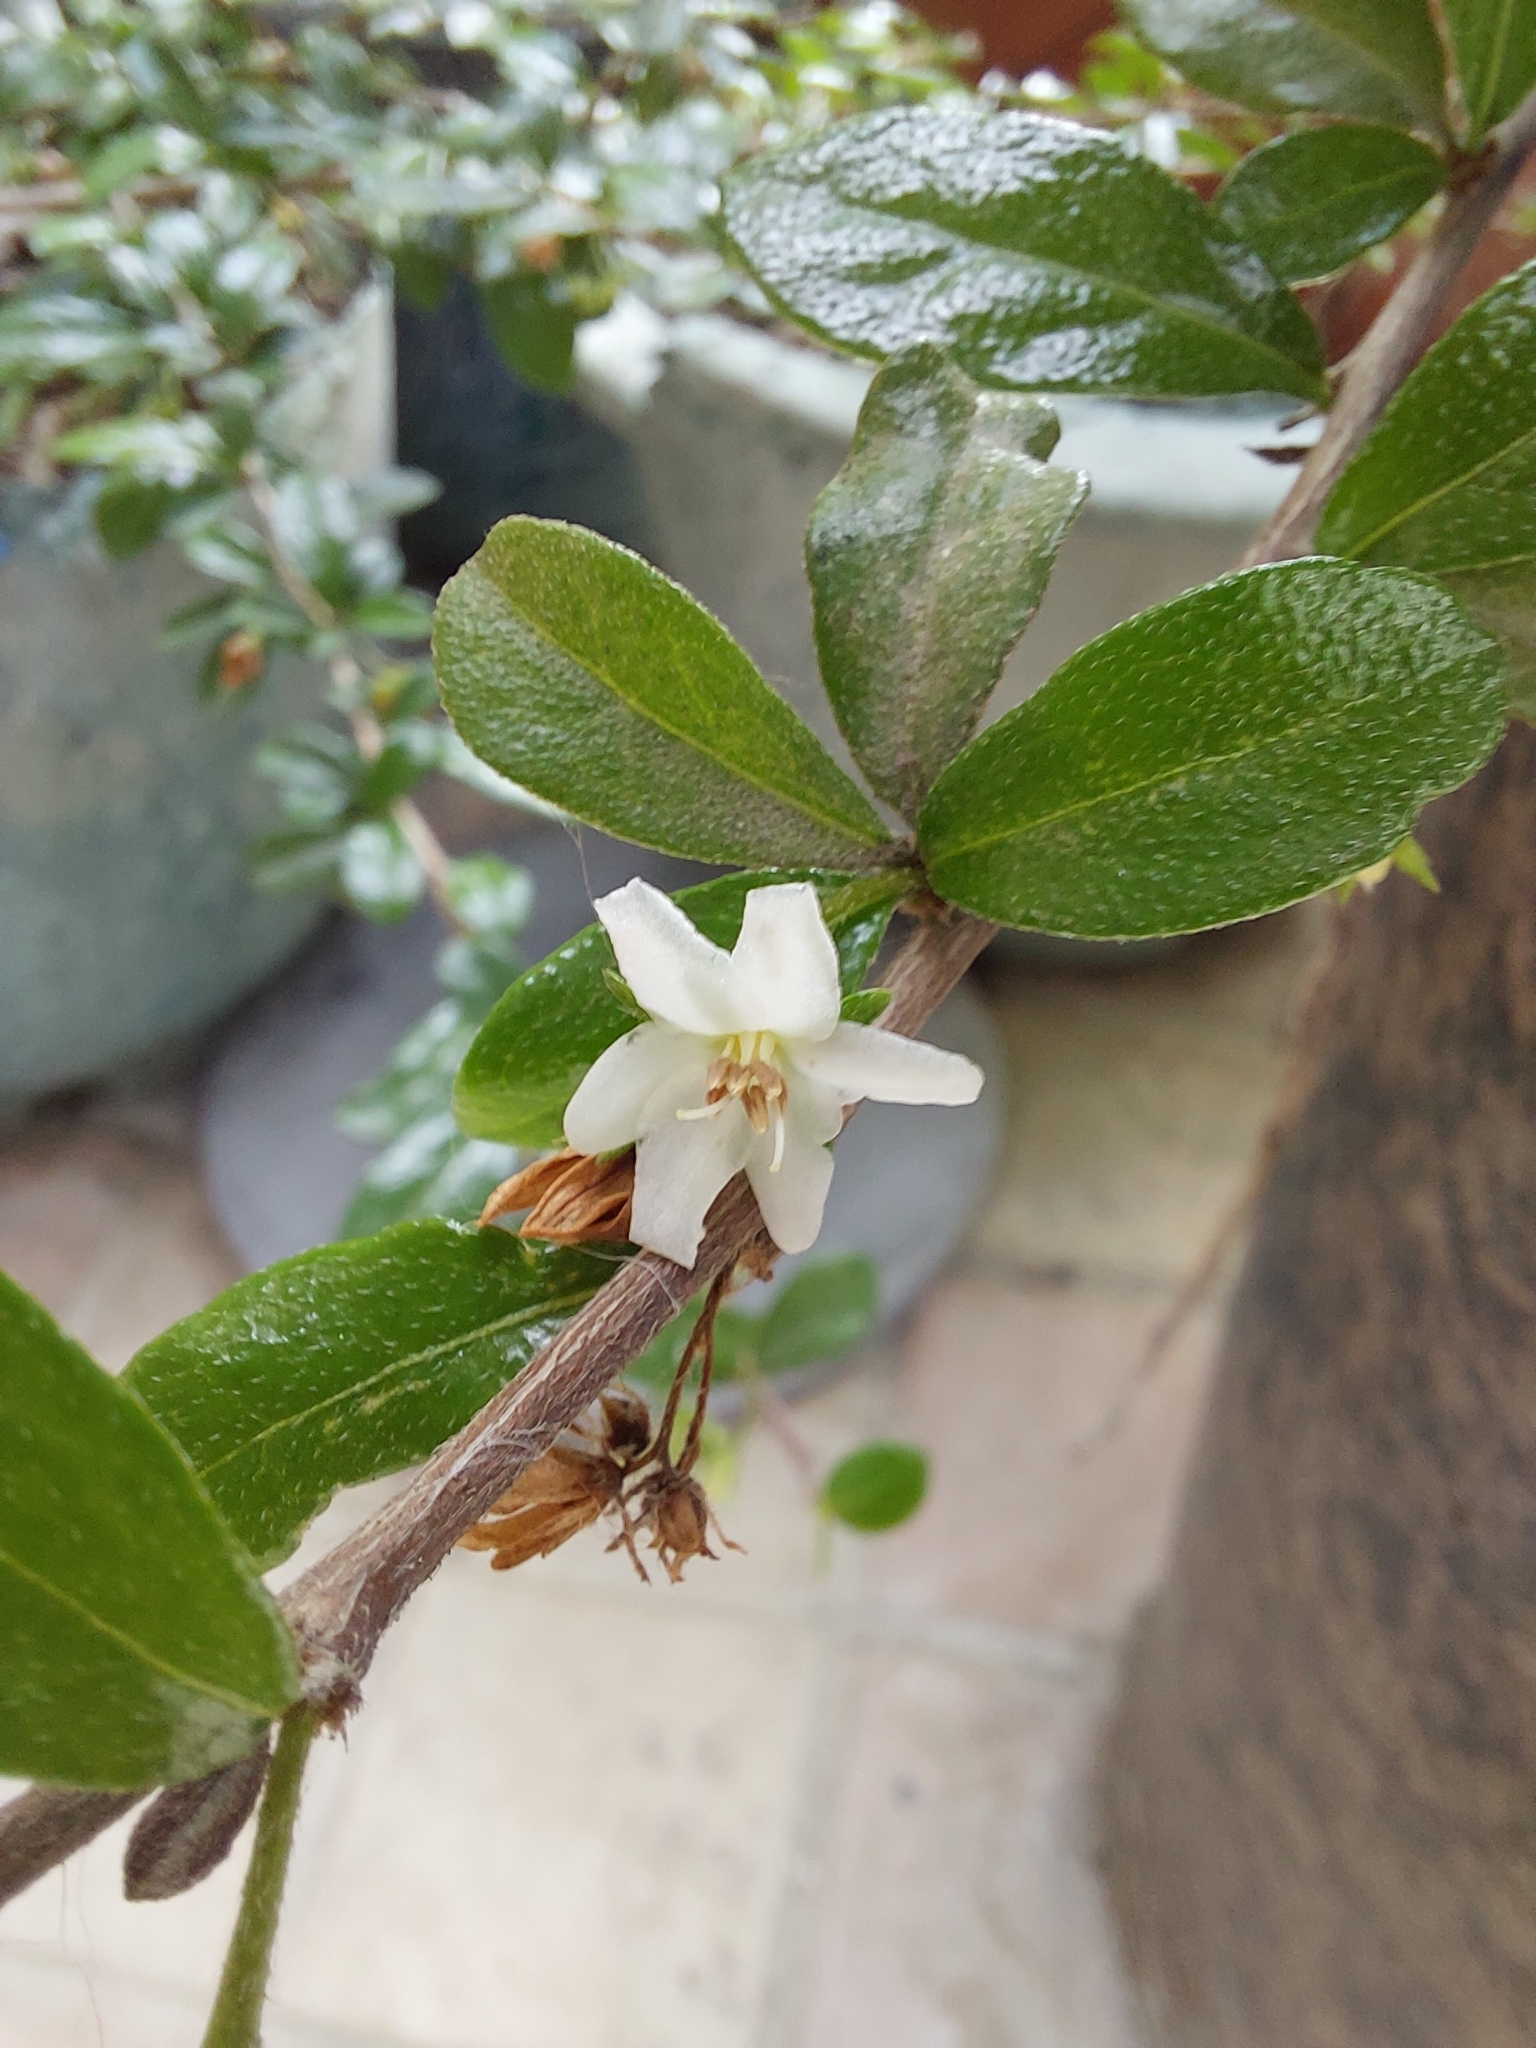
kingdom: Plantae
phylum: Tracheophyta
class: Magnoliopsida
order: Boraginales
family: Ehretiaceae
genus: Ehretia
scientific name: Ehretia microphylla
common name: Fukien-tea
